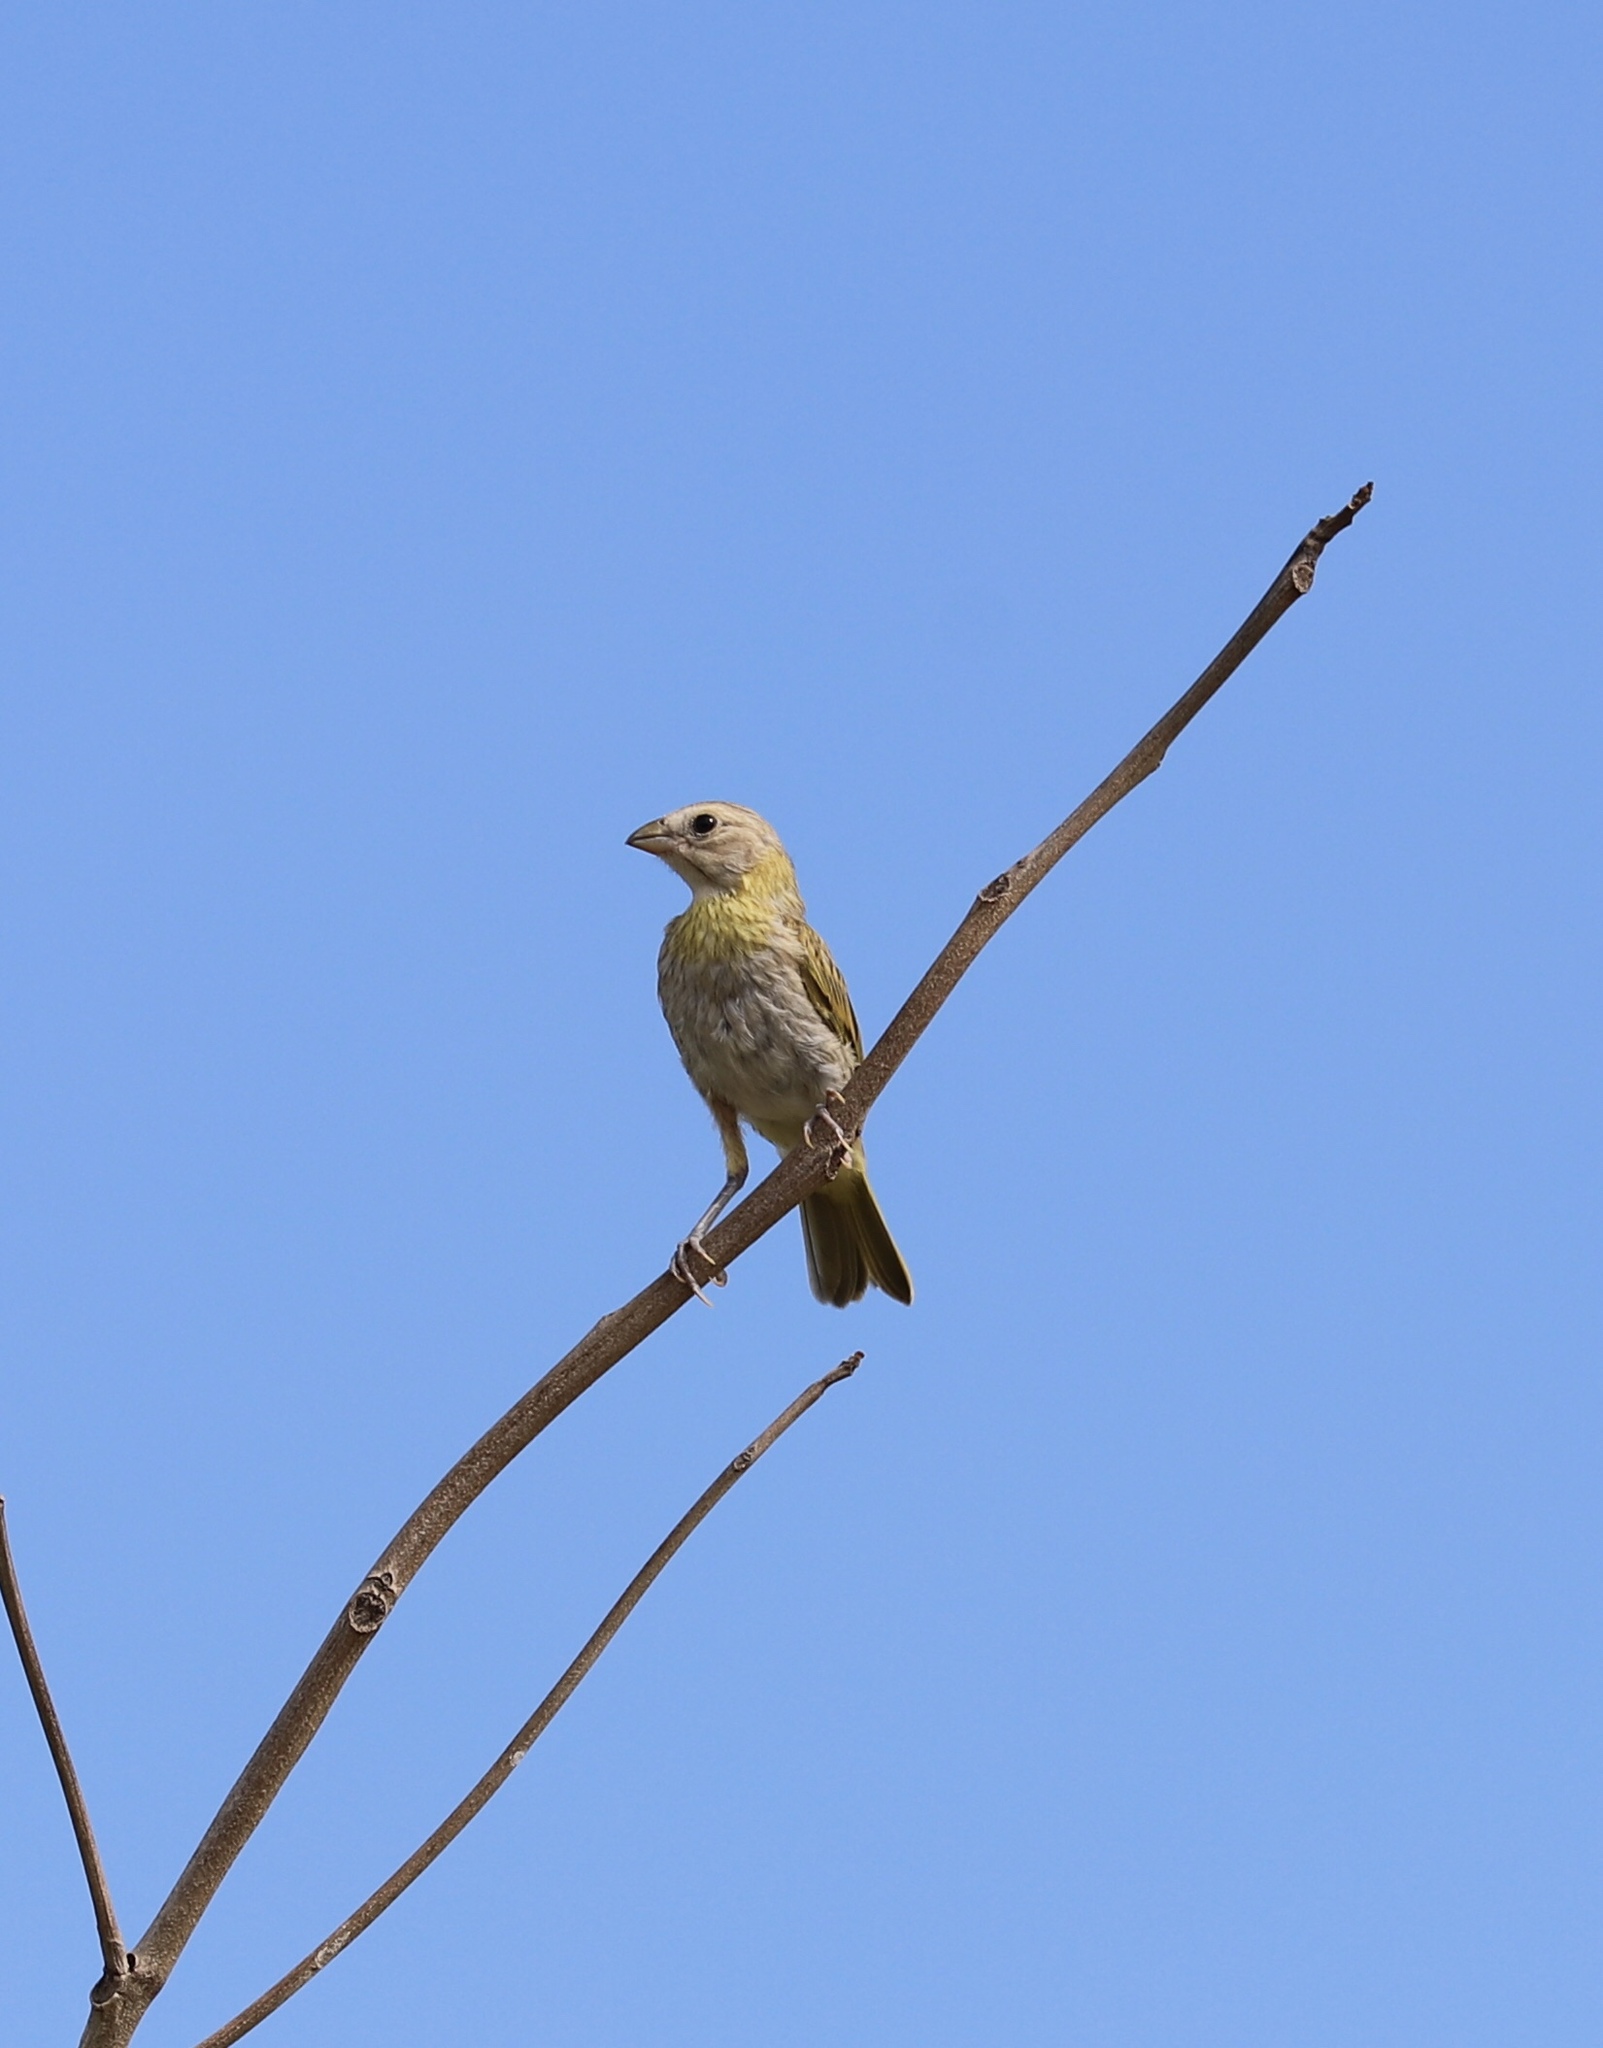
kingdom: Animalia
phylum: Chordata
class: Aves
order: Passeriformes
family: Thraupidae
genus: Sicalis
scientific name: Sicalis flaveola
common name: Saffron finch
